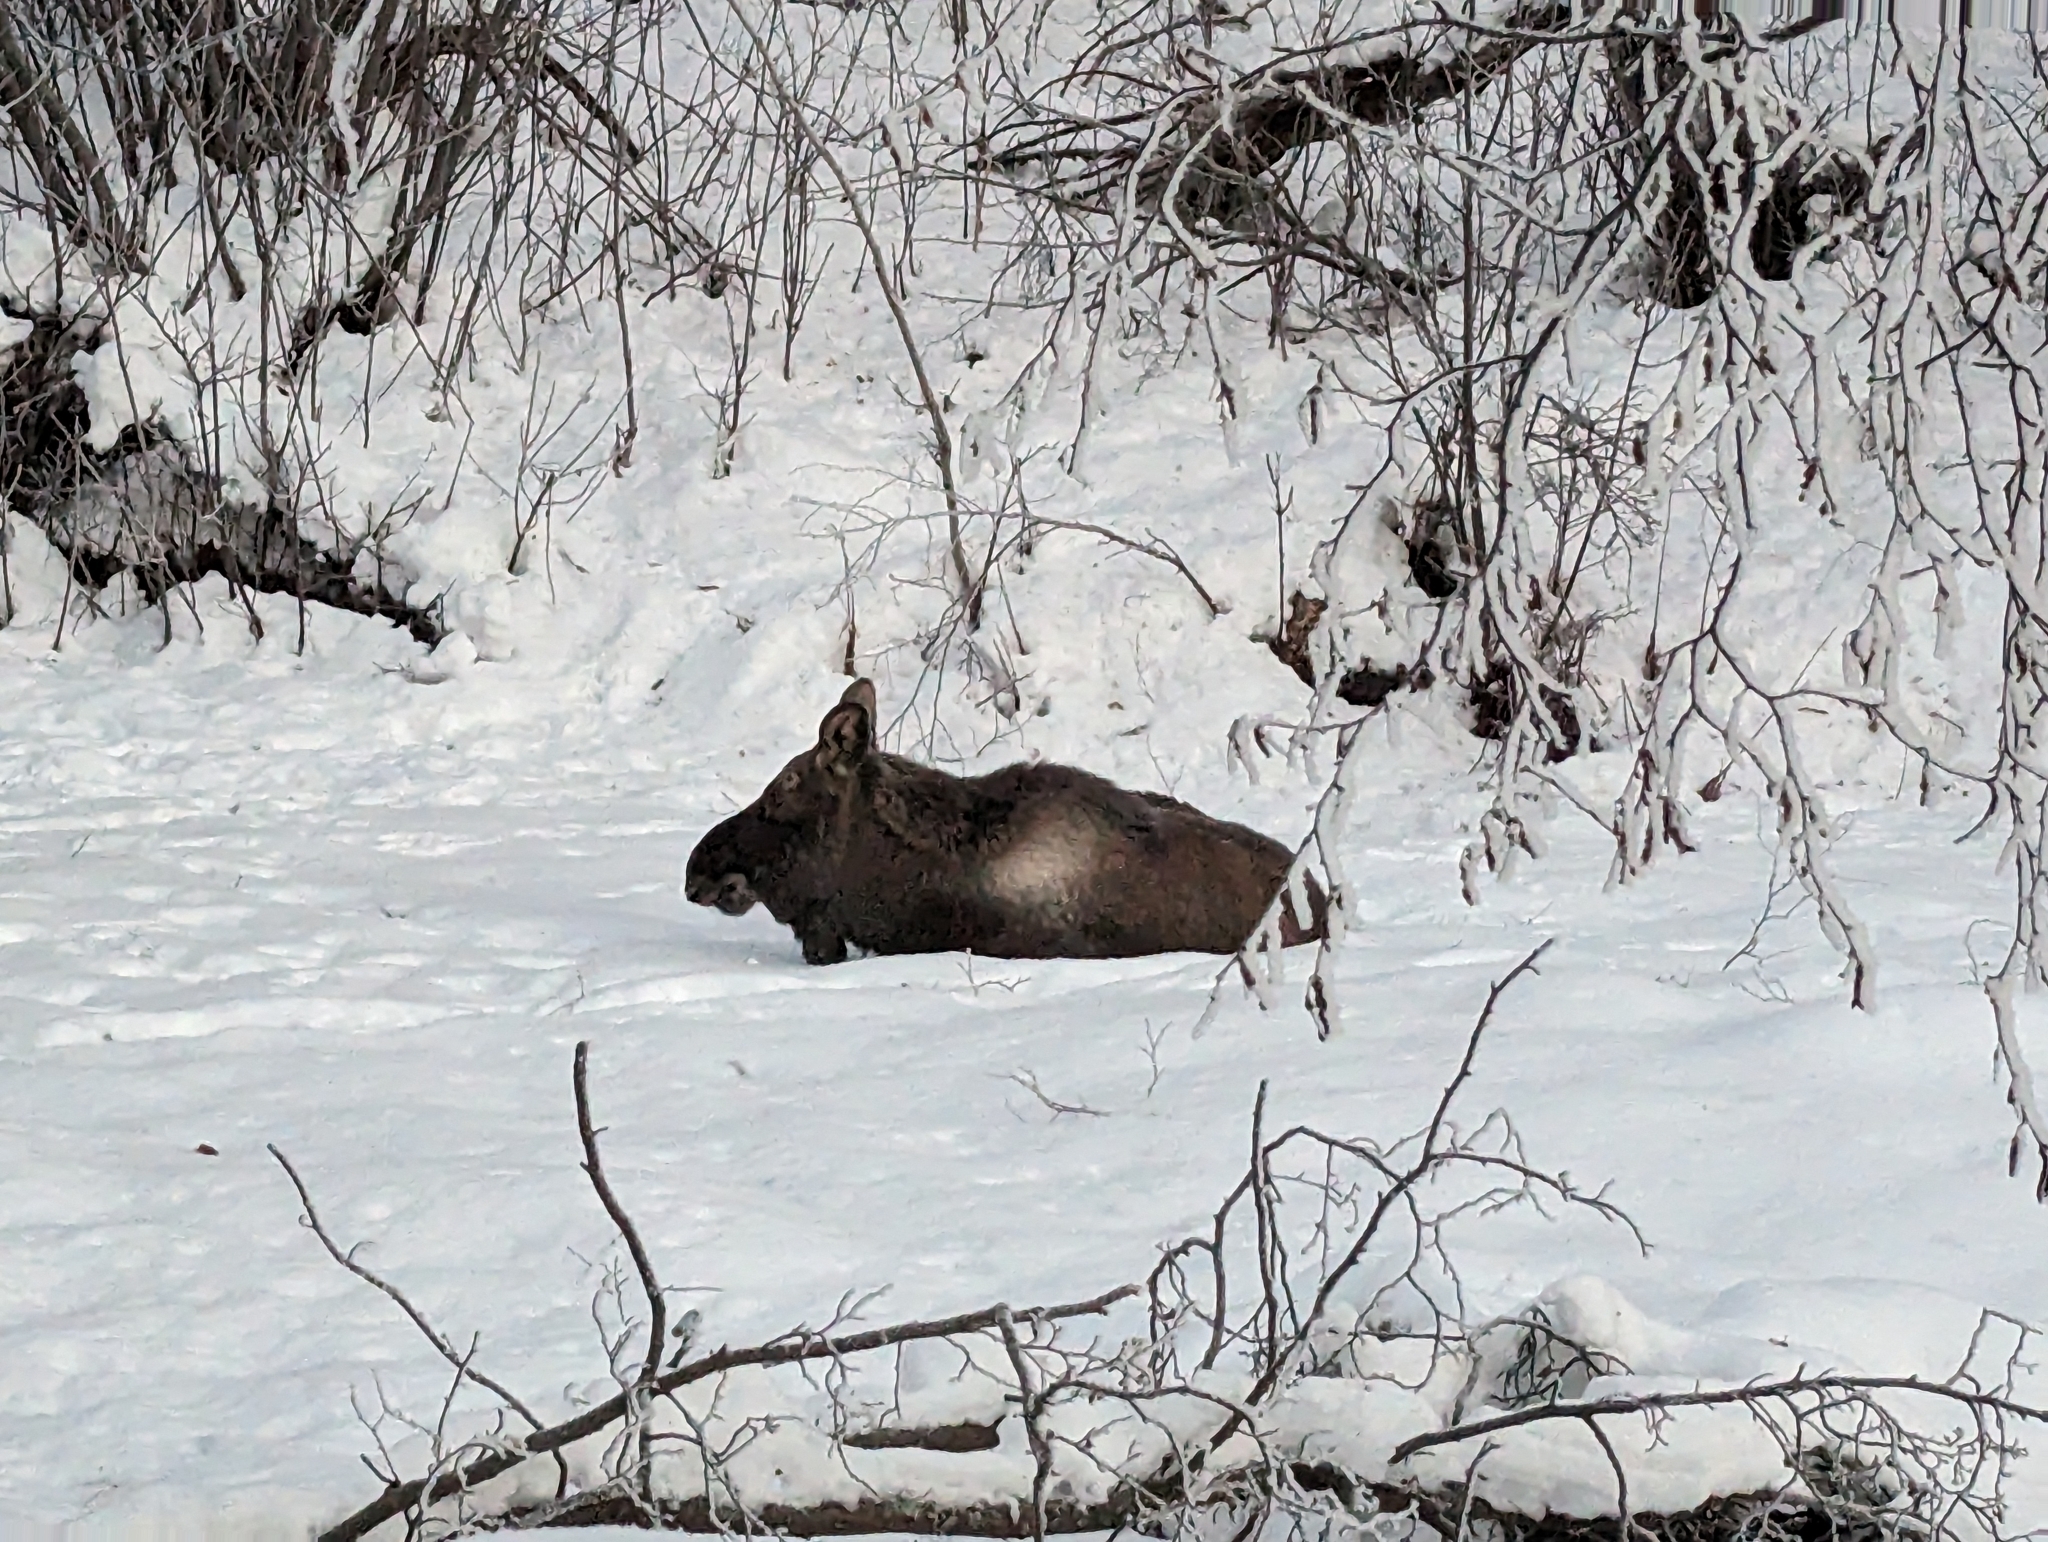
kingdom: Animalia
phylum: Chordata
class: Mammalia
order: Artiodactyla
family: Cervidae
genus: Alces
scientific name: Alces alces
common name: Moose
